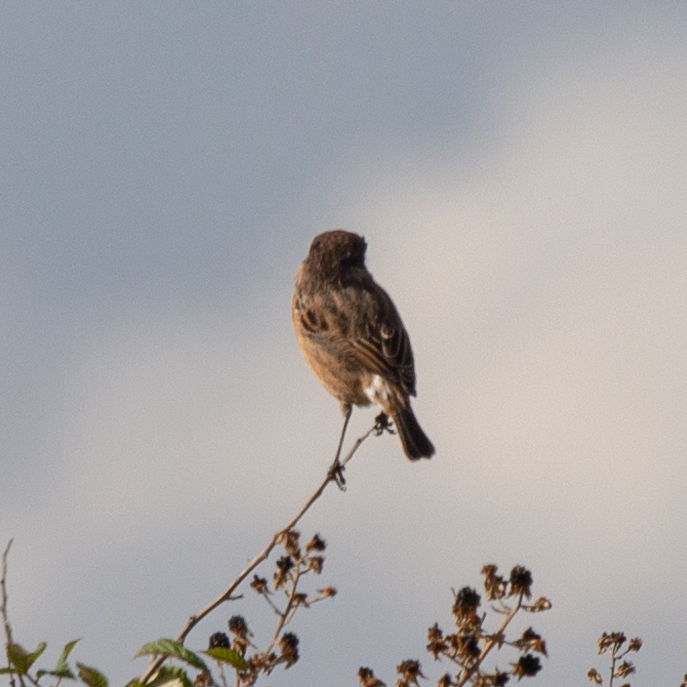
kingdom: Animalia
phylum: Chordata
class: Aves
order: Passeriformes
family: Muscicapidae
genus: Saxicola
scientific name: Saxicola rubicola
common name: European stonechat
